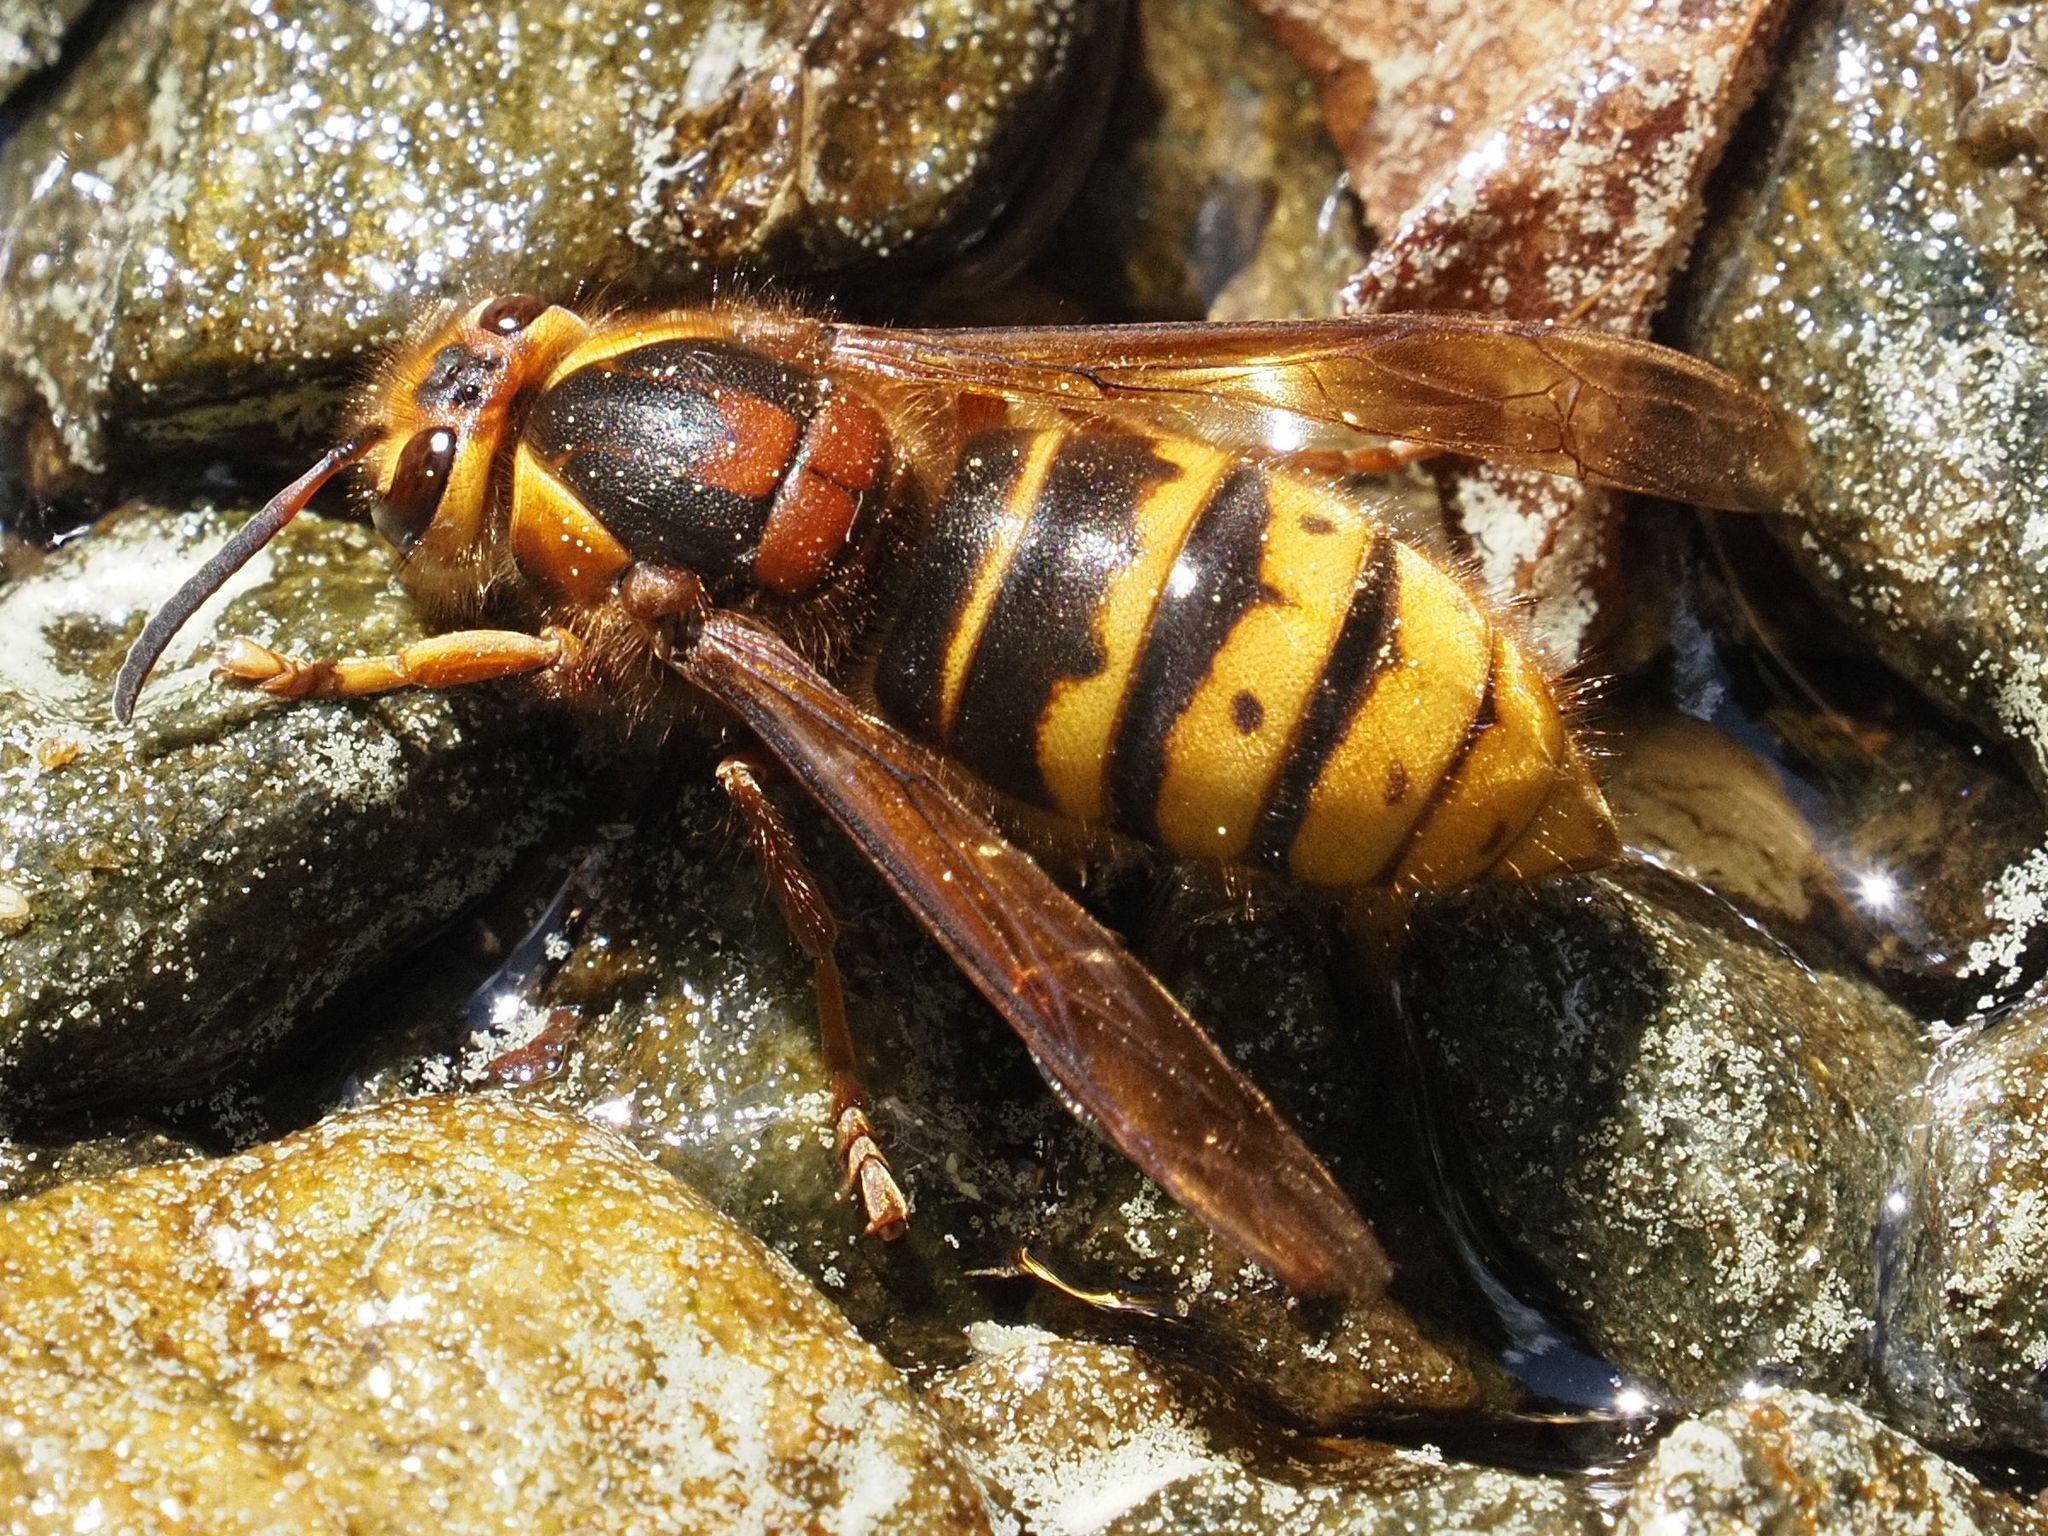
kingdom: Animalia
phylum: Arthropoda
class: Insecta
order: Hymenoptera
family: Vespidae
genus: Dolichovespula
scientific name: Dolichovespula media
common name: Median wasp
